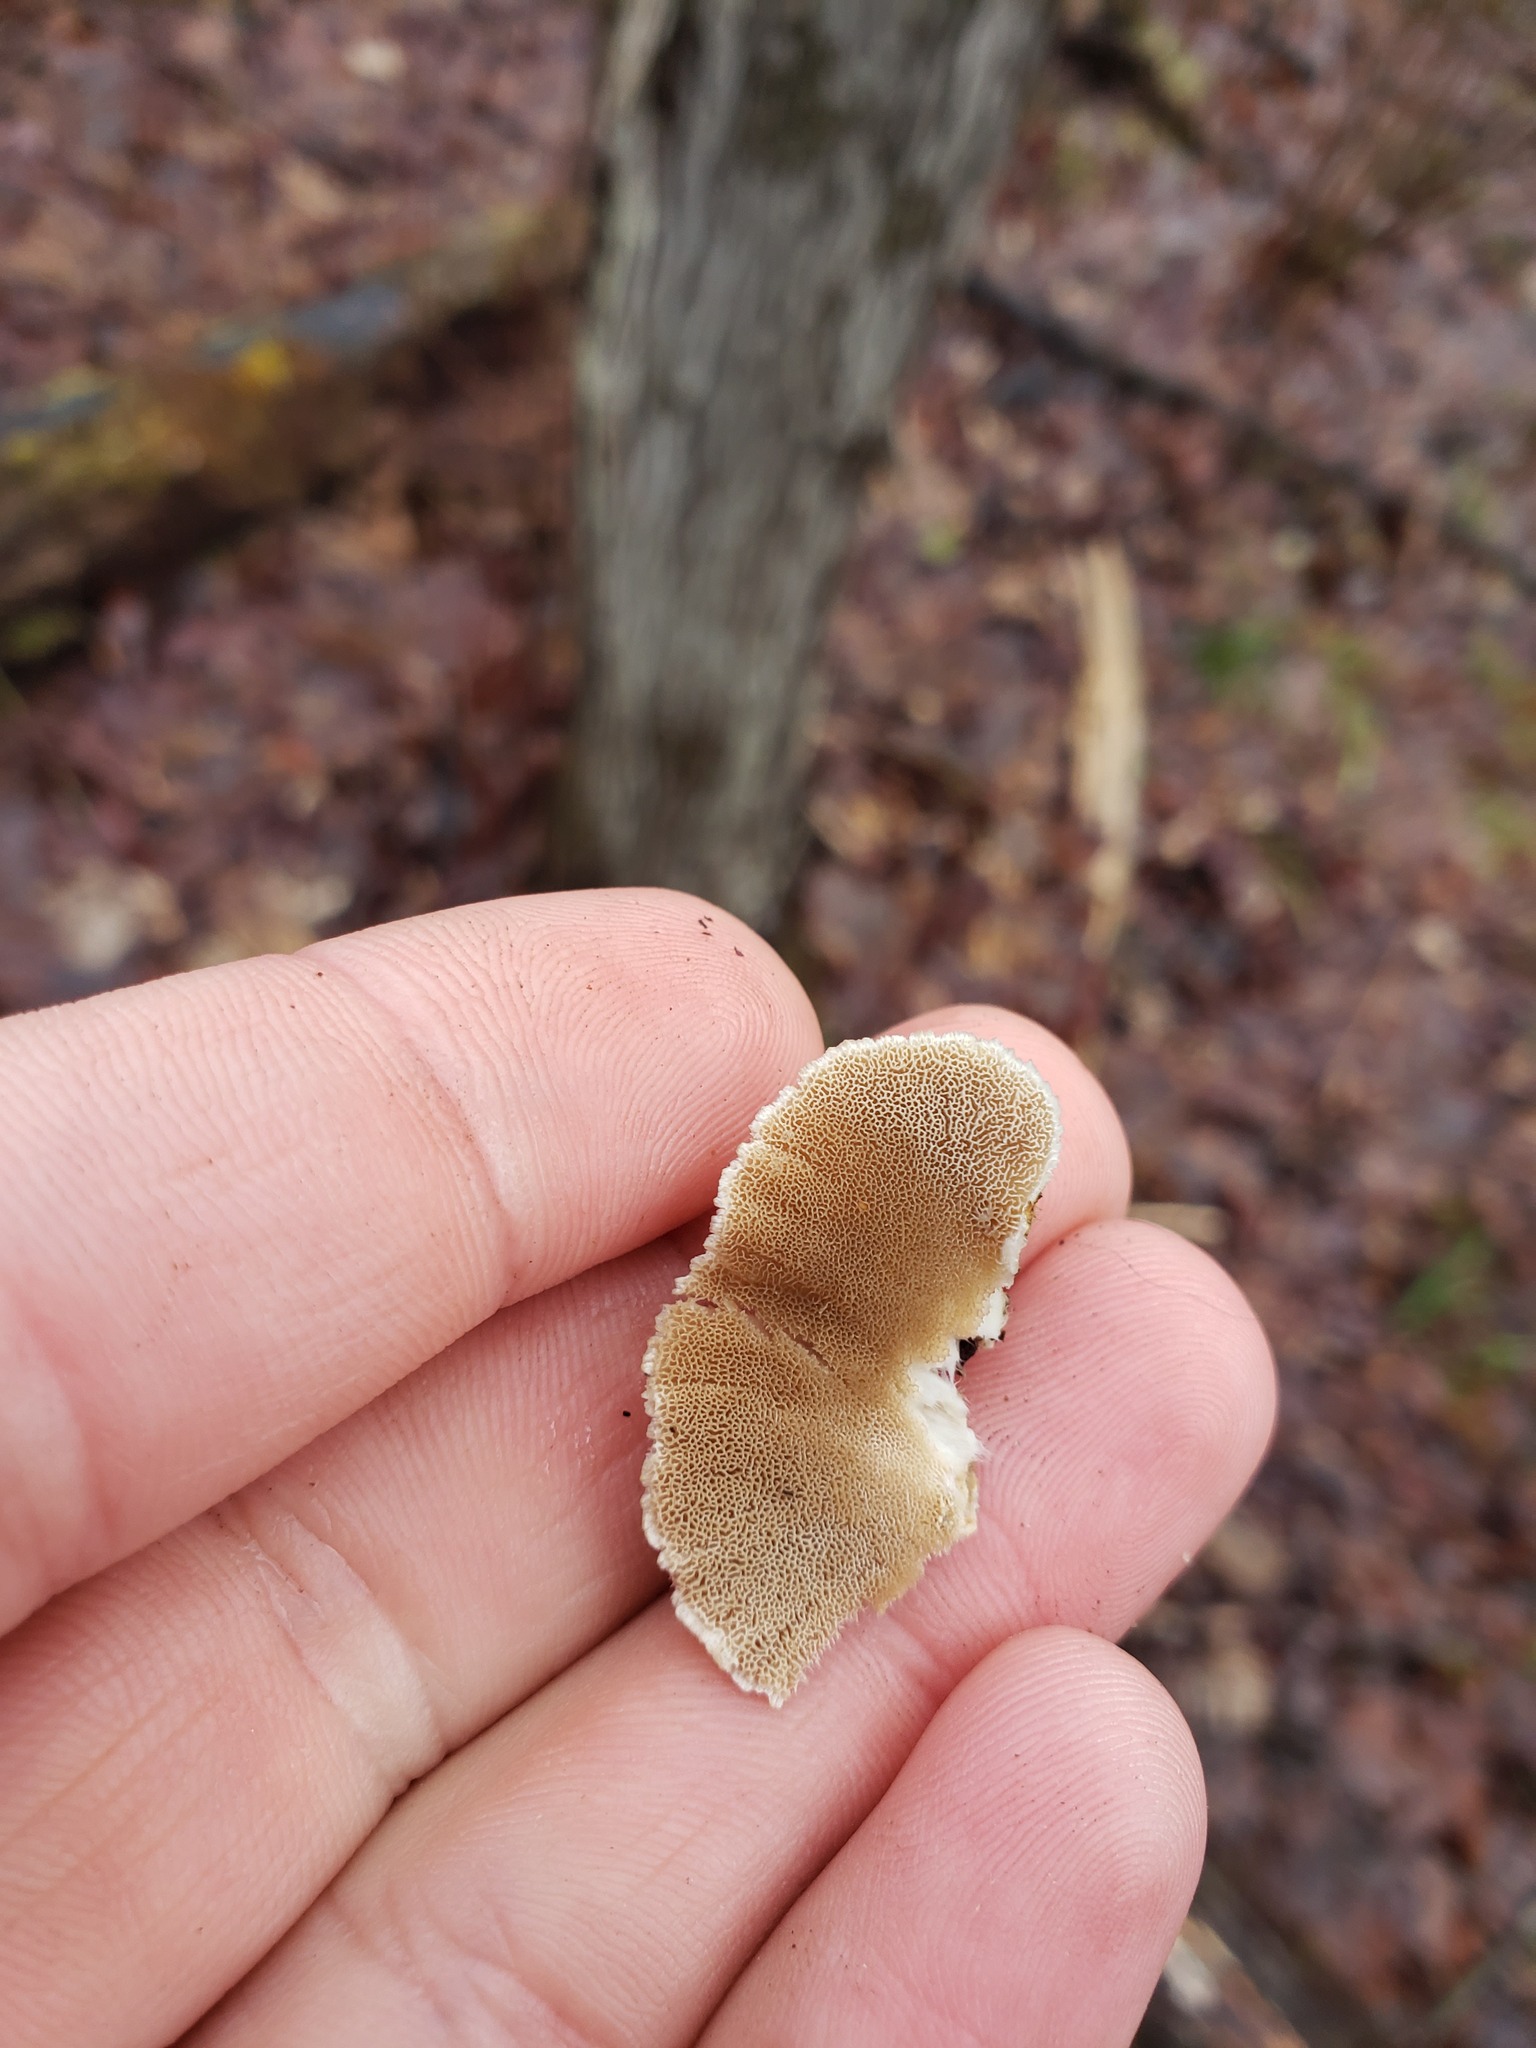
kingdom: Fungi
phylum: Basidiomycota
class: Agaricomycetes
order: Polyporales
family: Polyporaceae
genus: Trametes
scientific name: Trametes ochracea
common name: Ochre bracket
